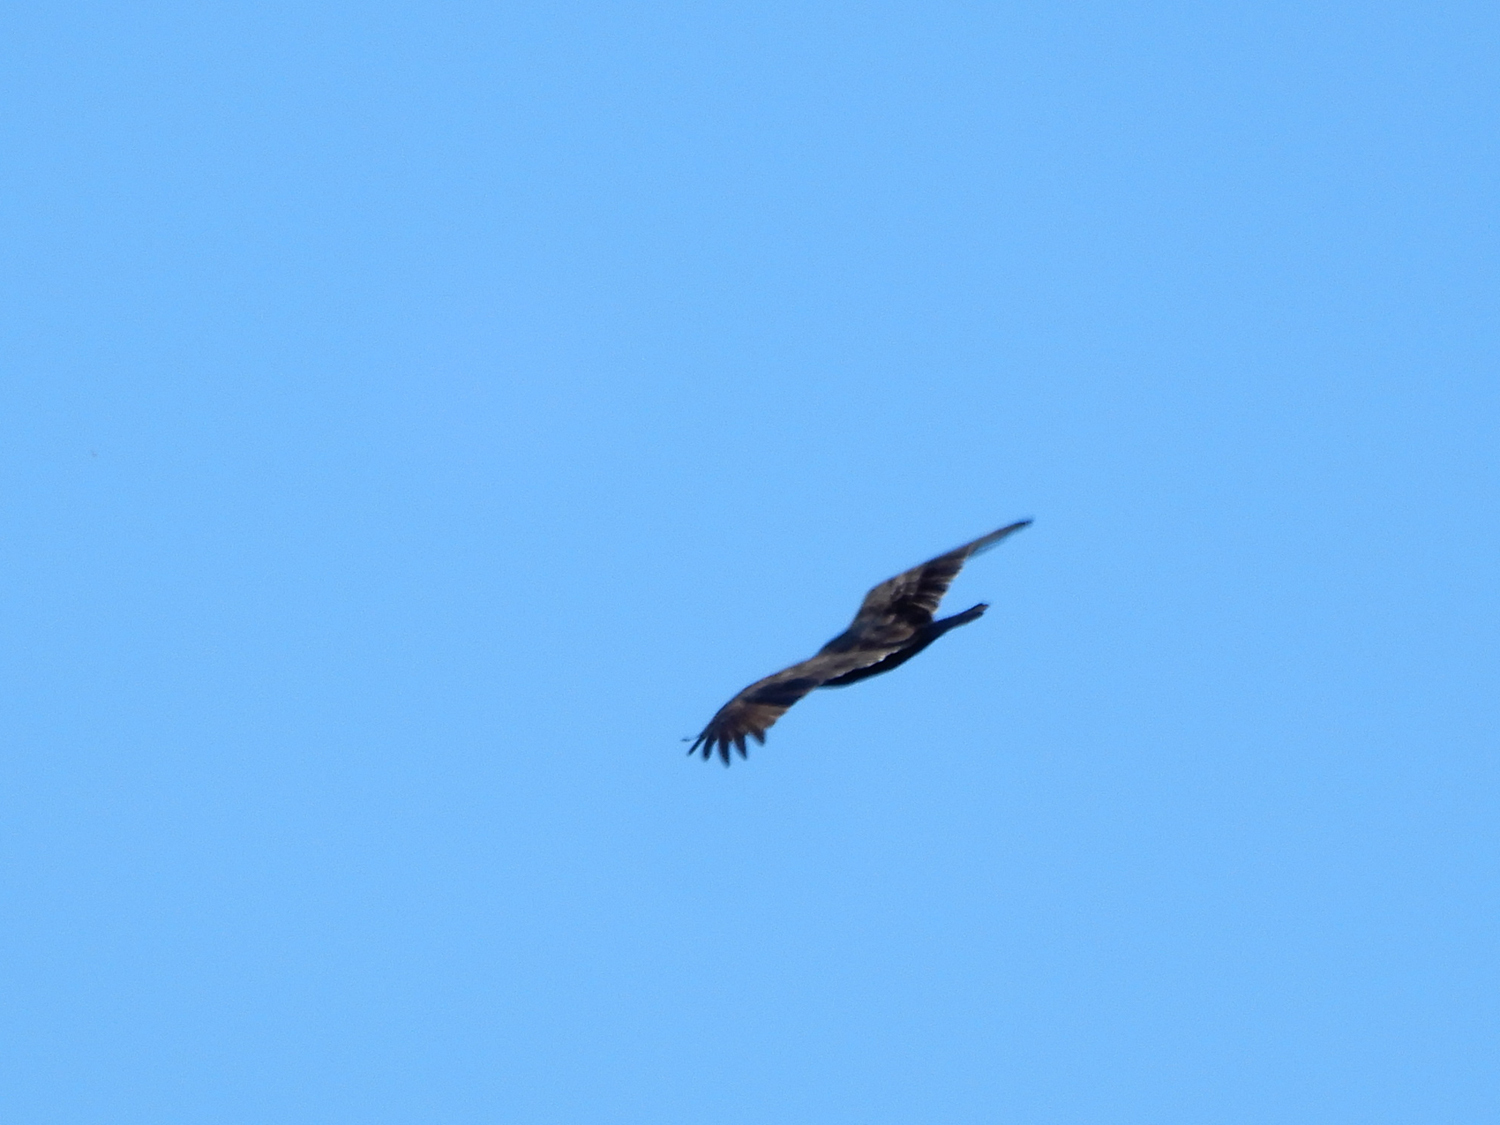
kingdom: Animalia
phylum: Chordata
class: Aves
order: Accipitriformes
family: Cathartidae
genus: Cathartes
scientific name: Cathartes aura
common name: Turkey vulture
